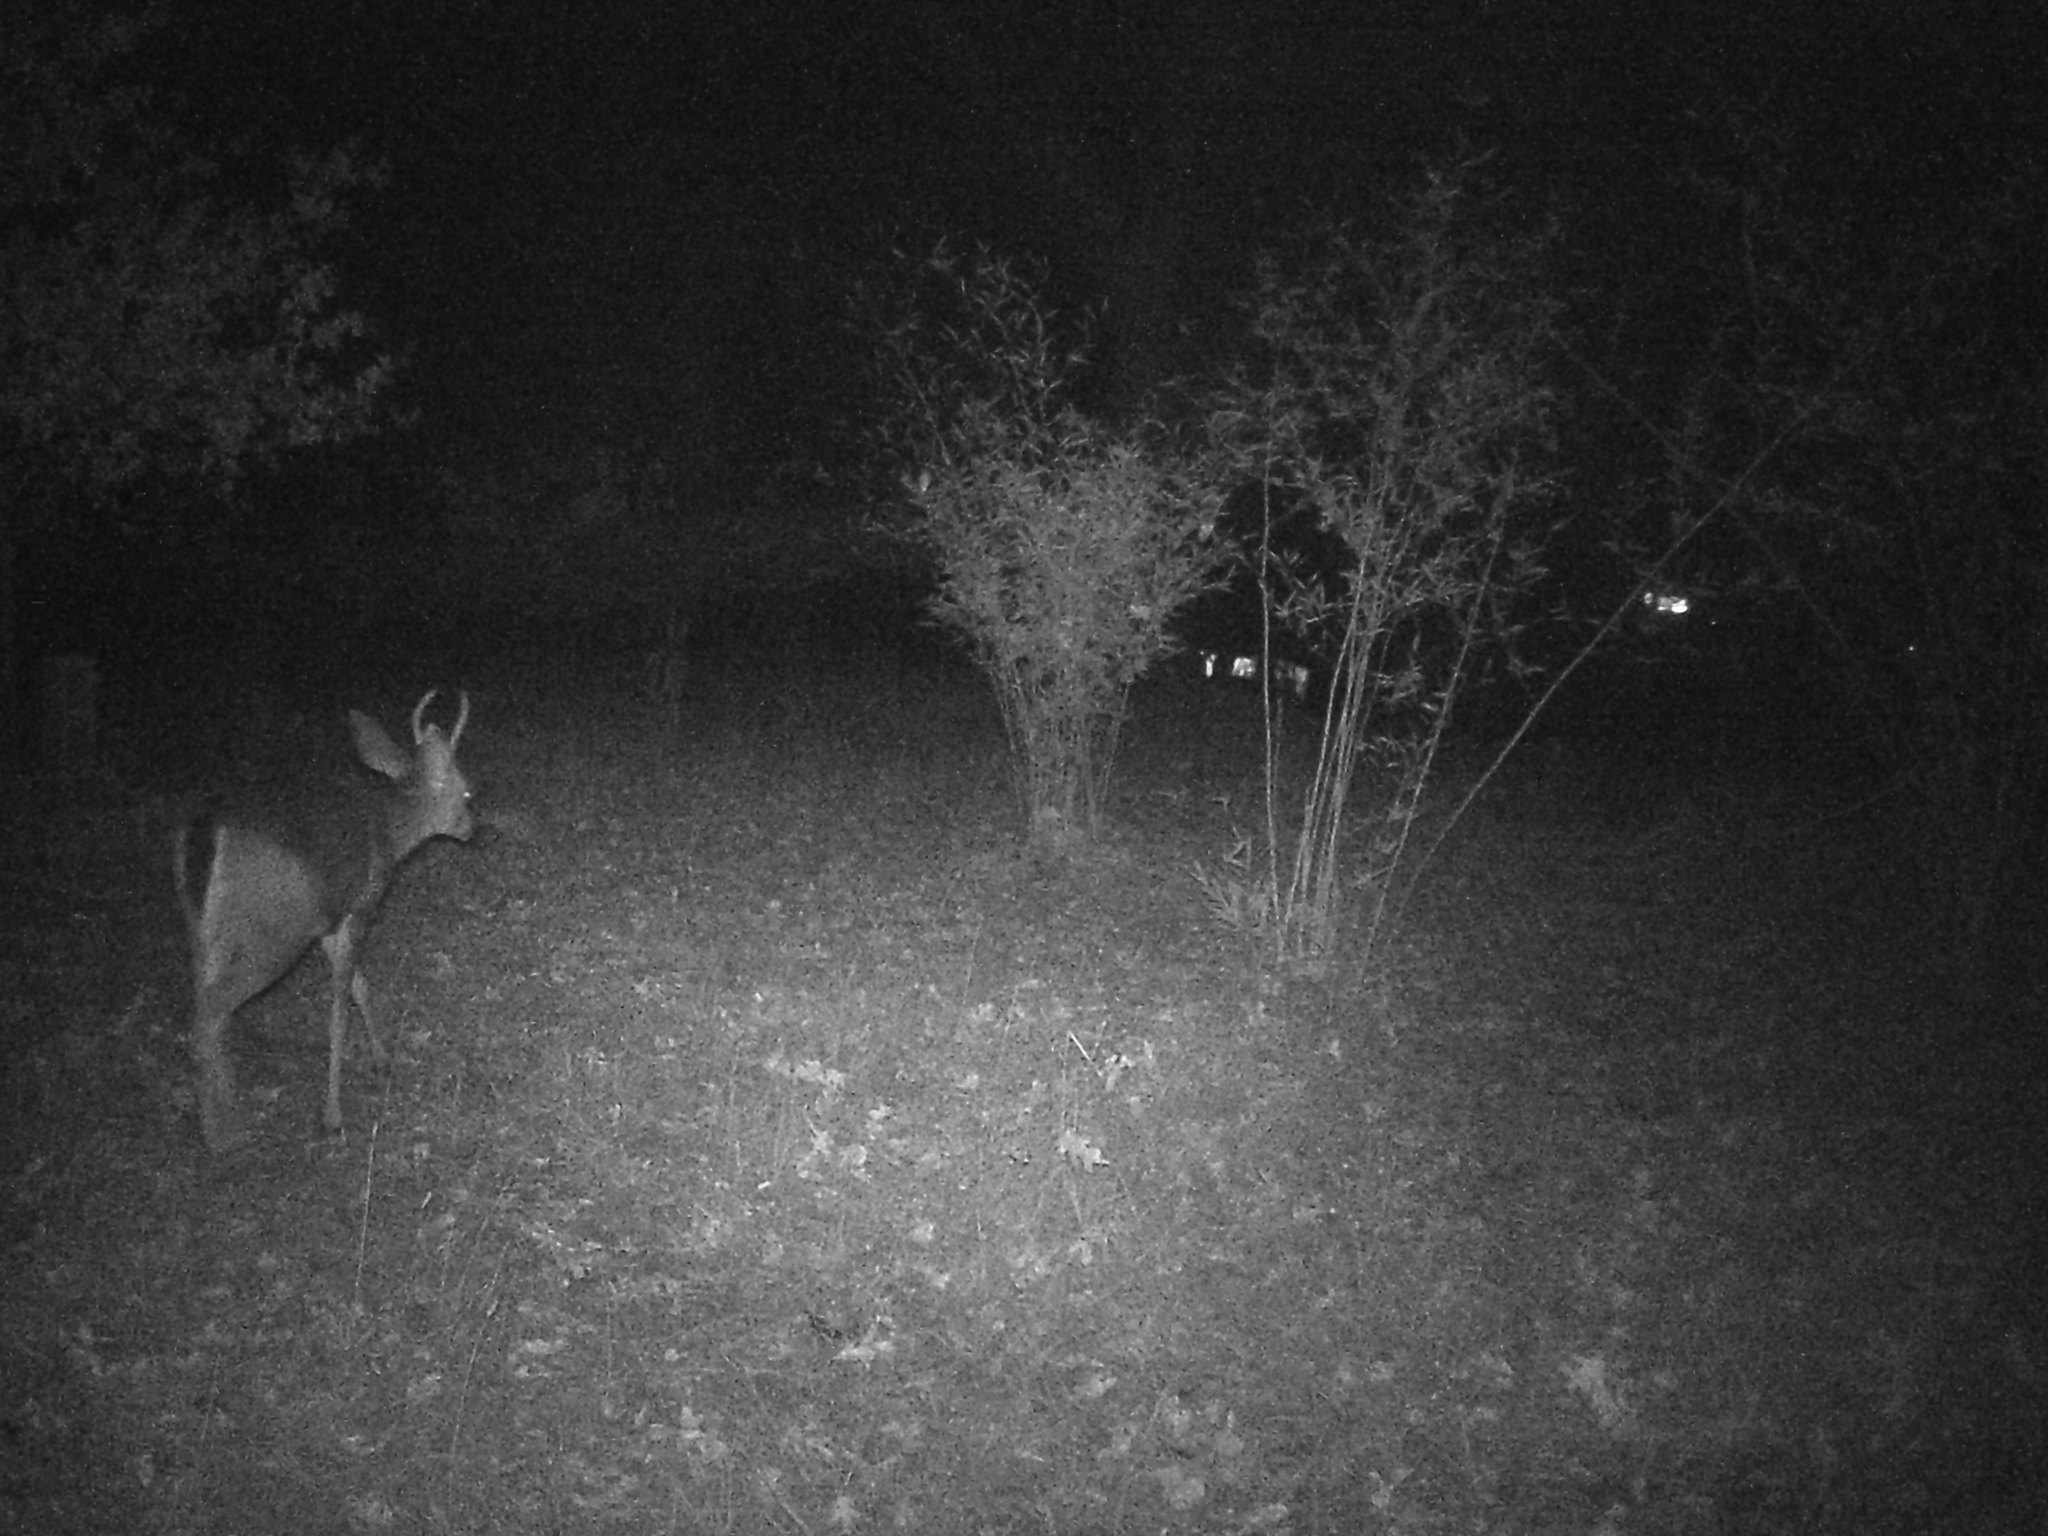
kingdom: Animalia
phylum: Chordata
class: Mammalia
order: Artiodactyla
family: Cervidae
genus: Odocoileus
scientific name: Odocoileus hemionus
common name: Mule deer
